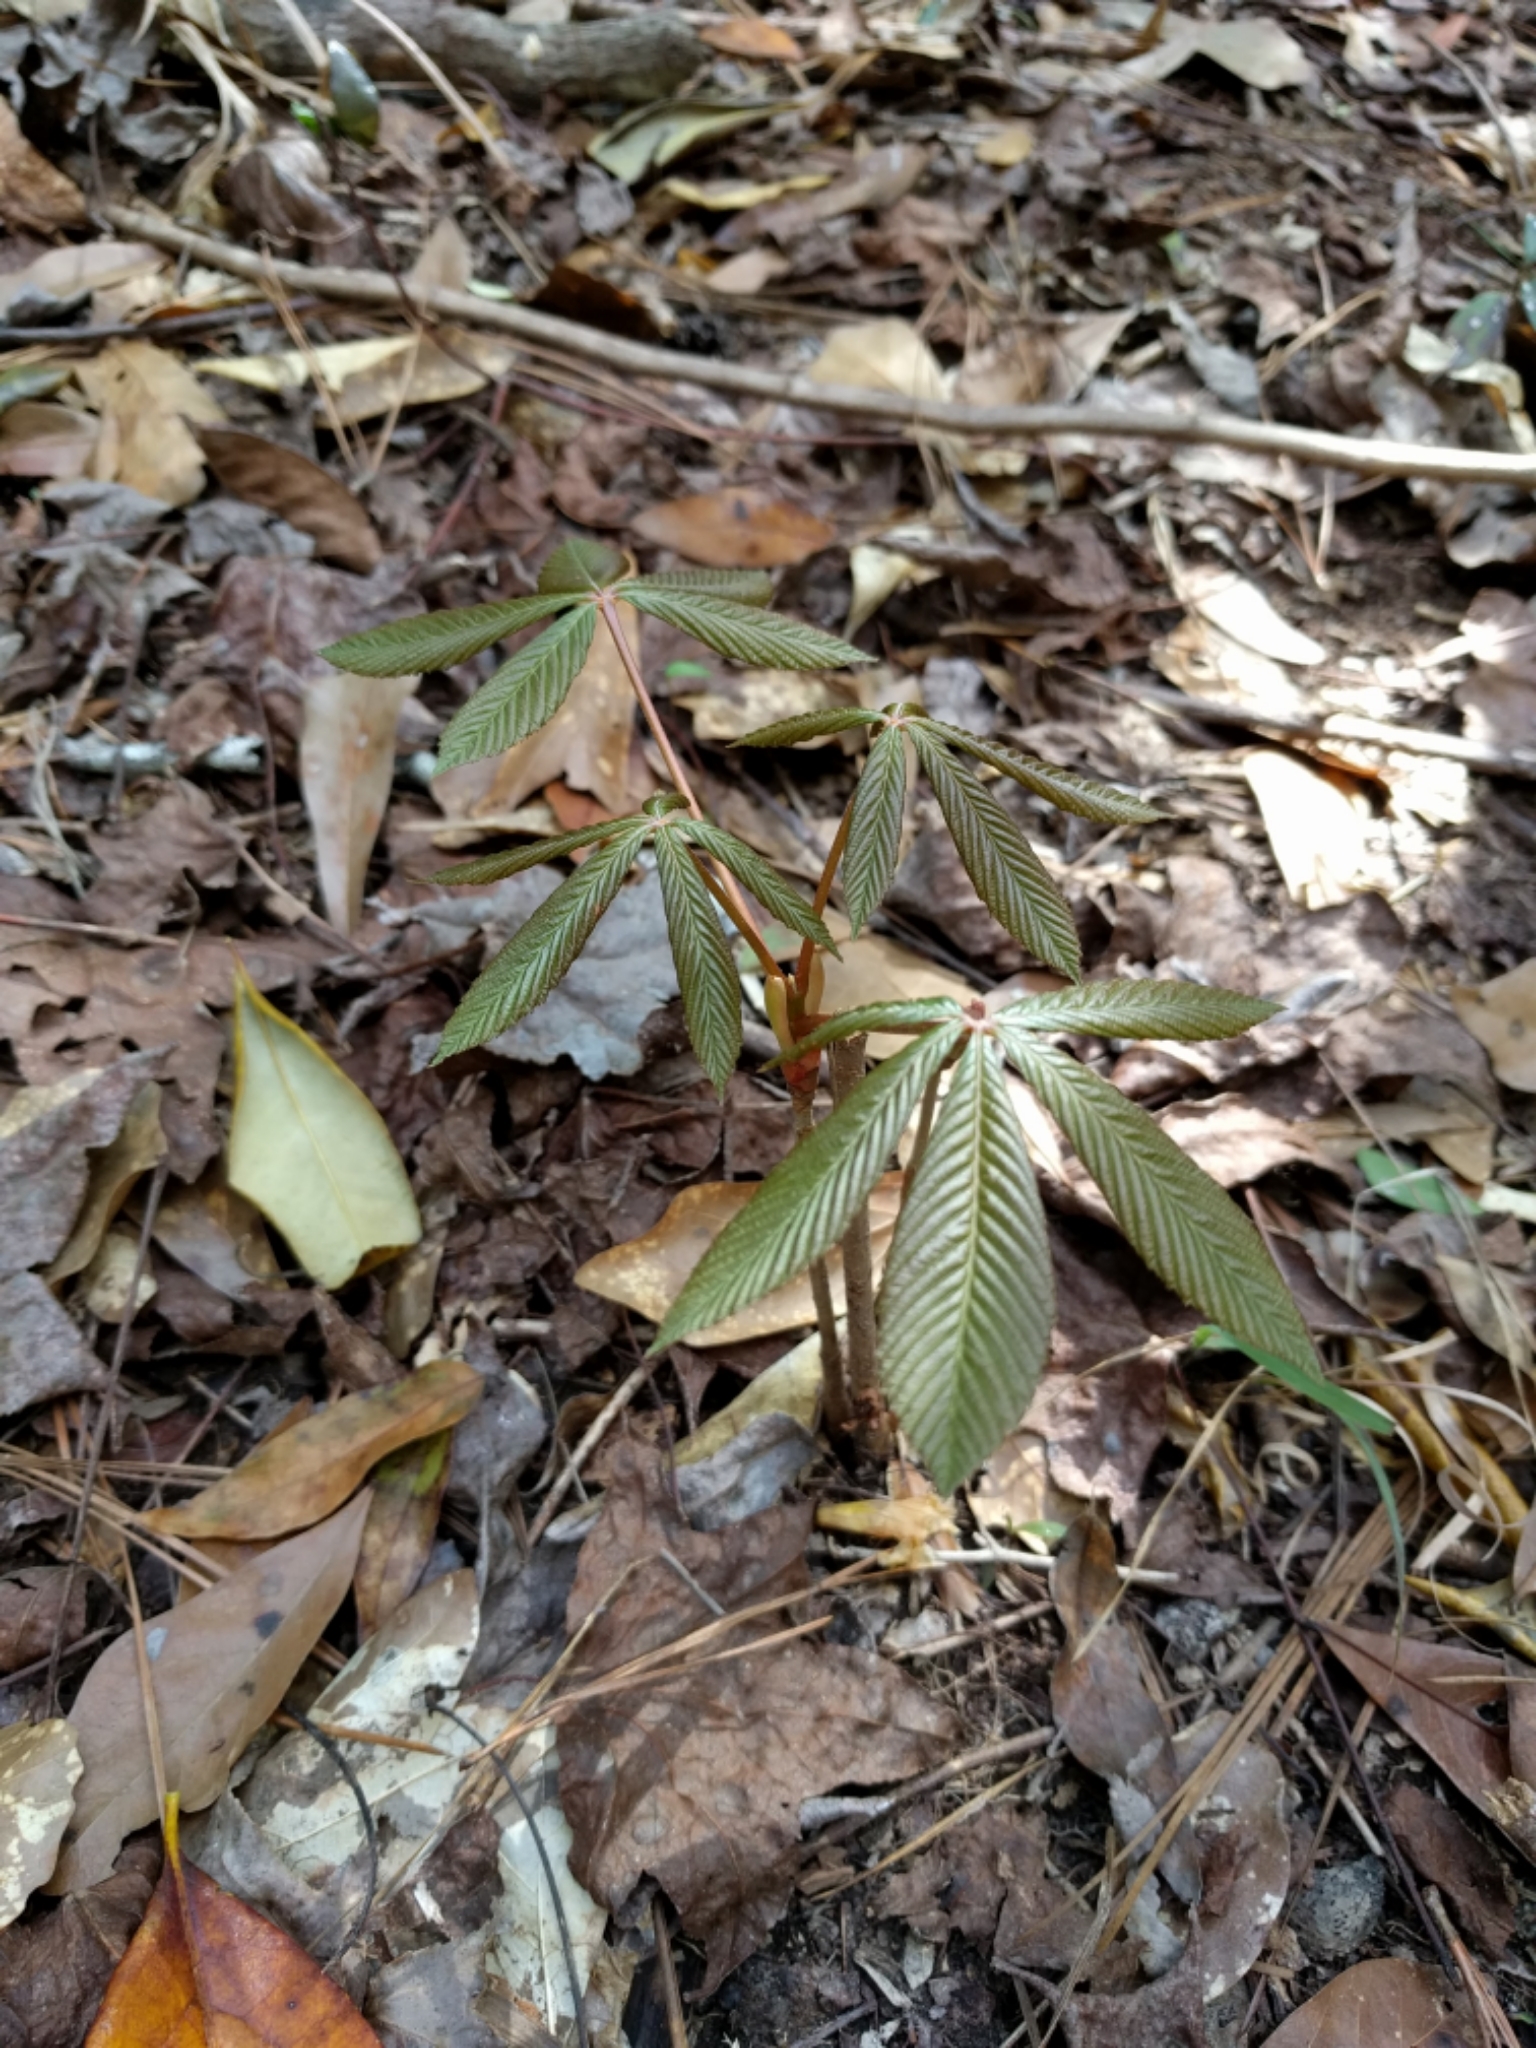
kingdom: Plantae
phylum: Tracheophyta
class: Magnoliopsida
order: Sapindales
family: Sapindaceae
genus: Aesculus
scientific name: Aesculus pavia
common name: Red buckeye
